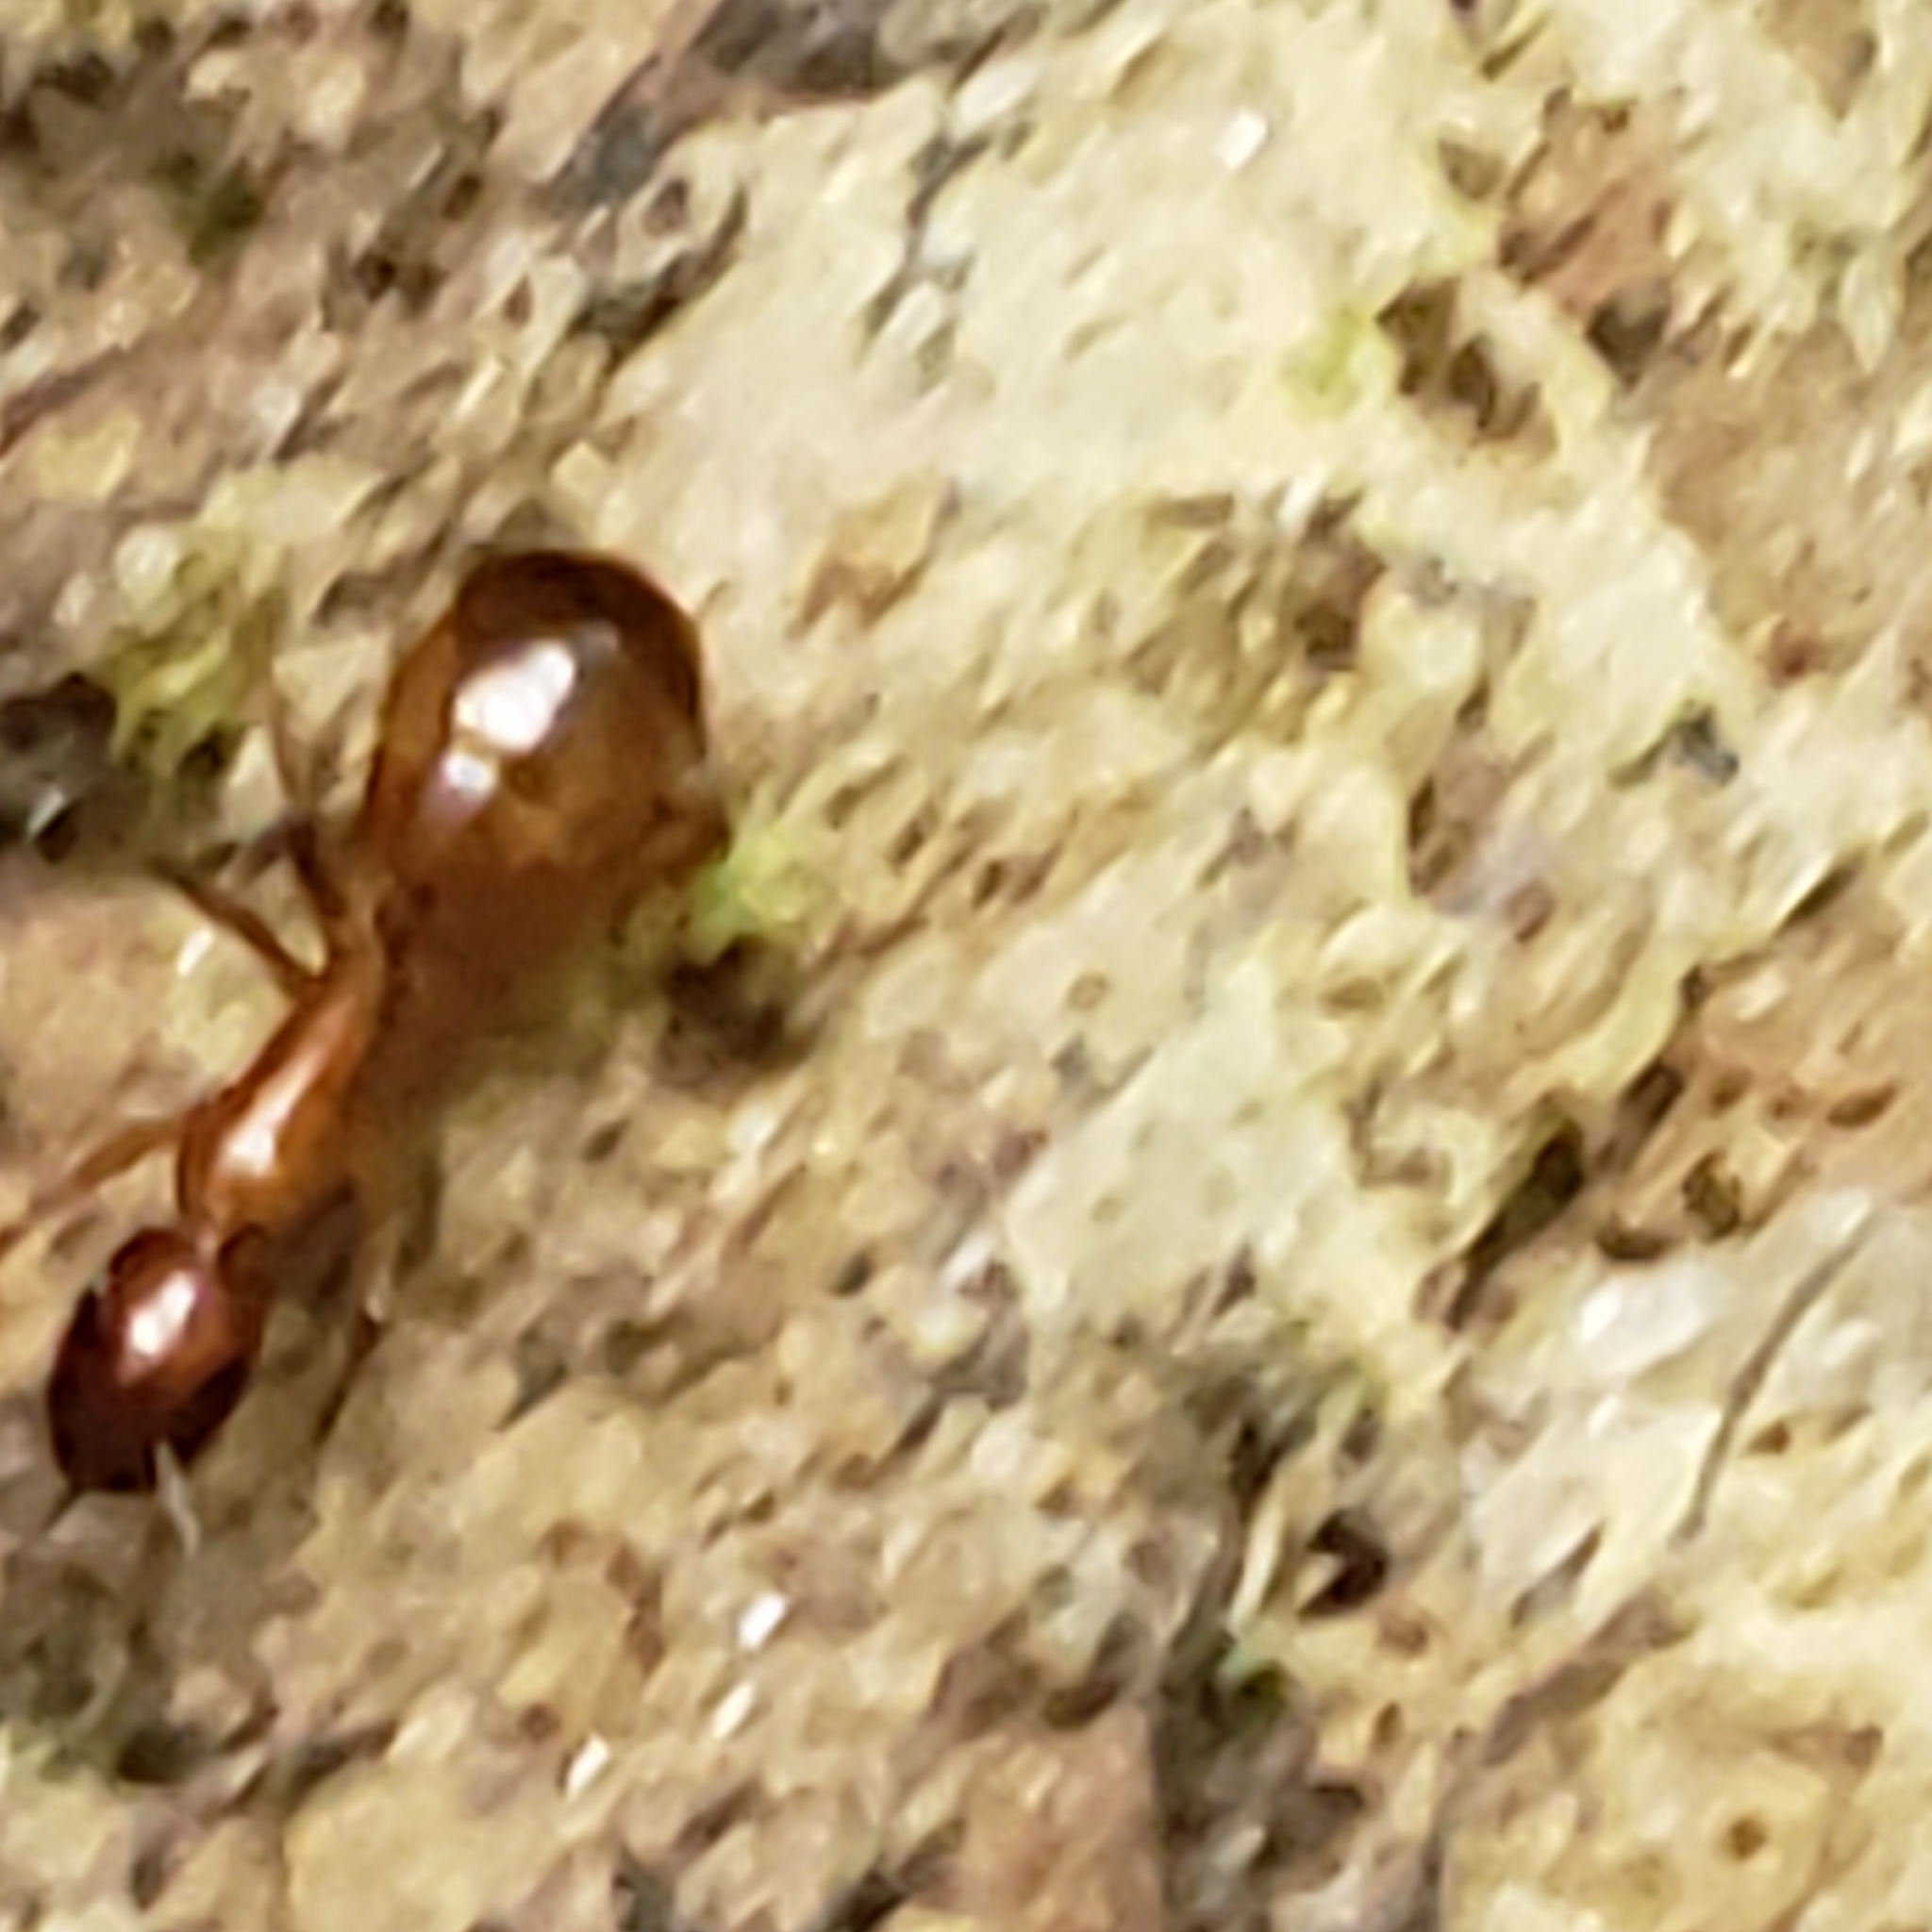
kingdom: Animalia
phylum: Arthropoda
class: Insecta
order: Hymenoptera
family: Formicidae
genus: Camponotus
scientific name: Camponotus castaneus
